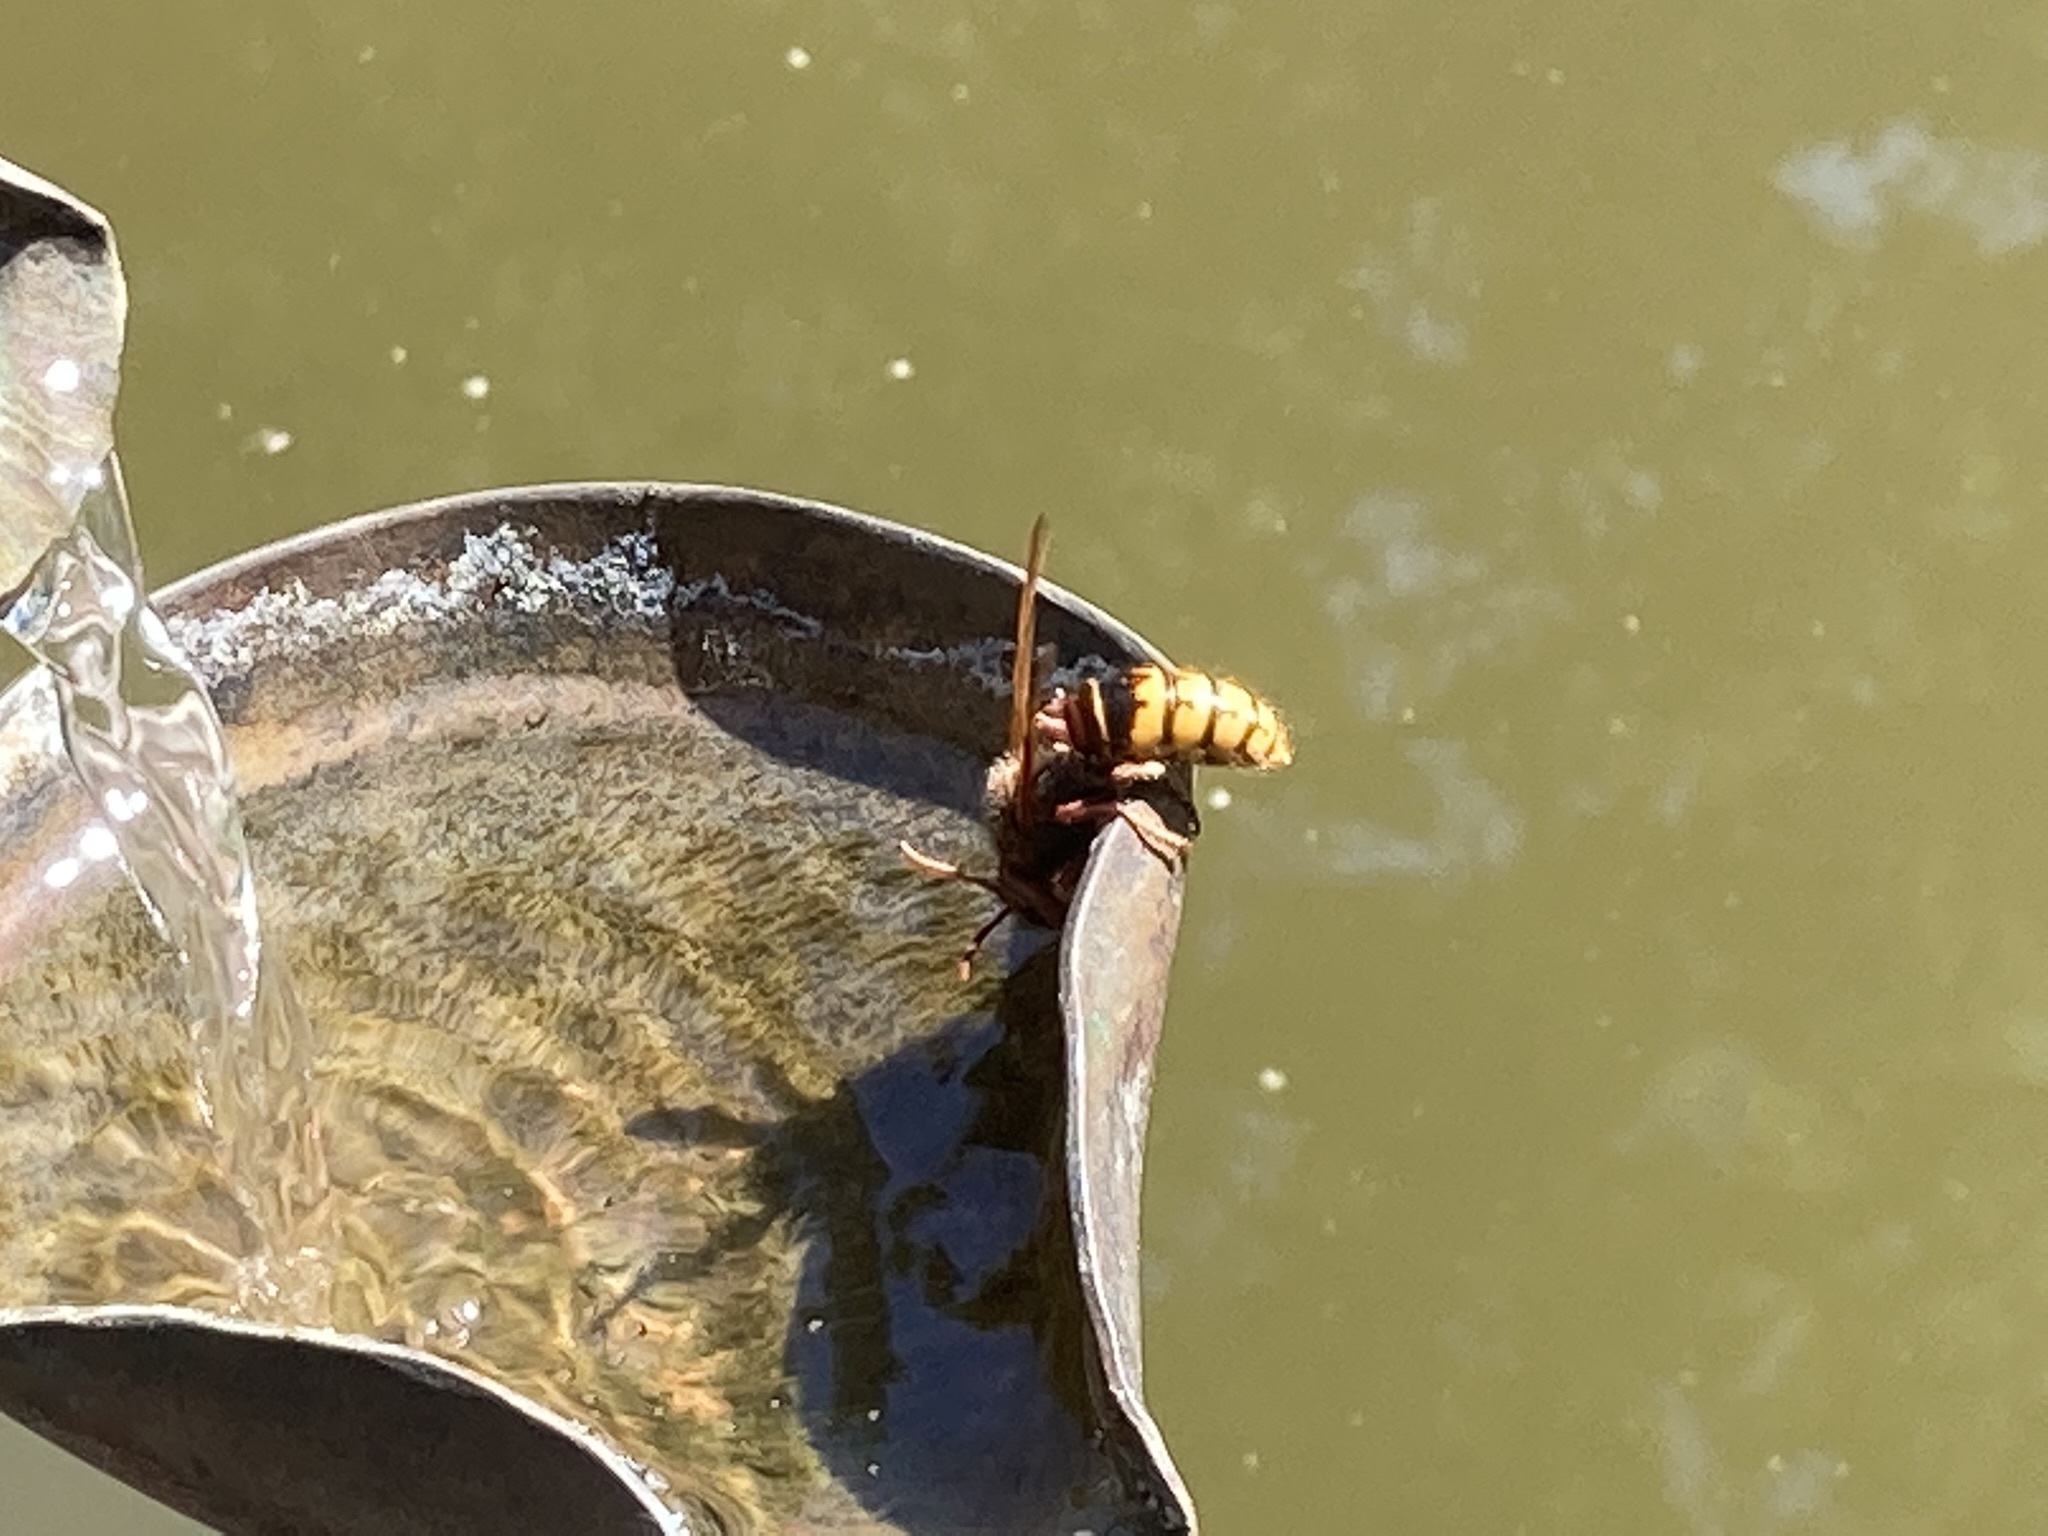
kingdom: Animalia
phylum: Arthropoda
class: Insecta
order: Hymenoptera
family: Vespidae
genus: Vespa
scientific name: Vespa crabro
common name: Hornet
